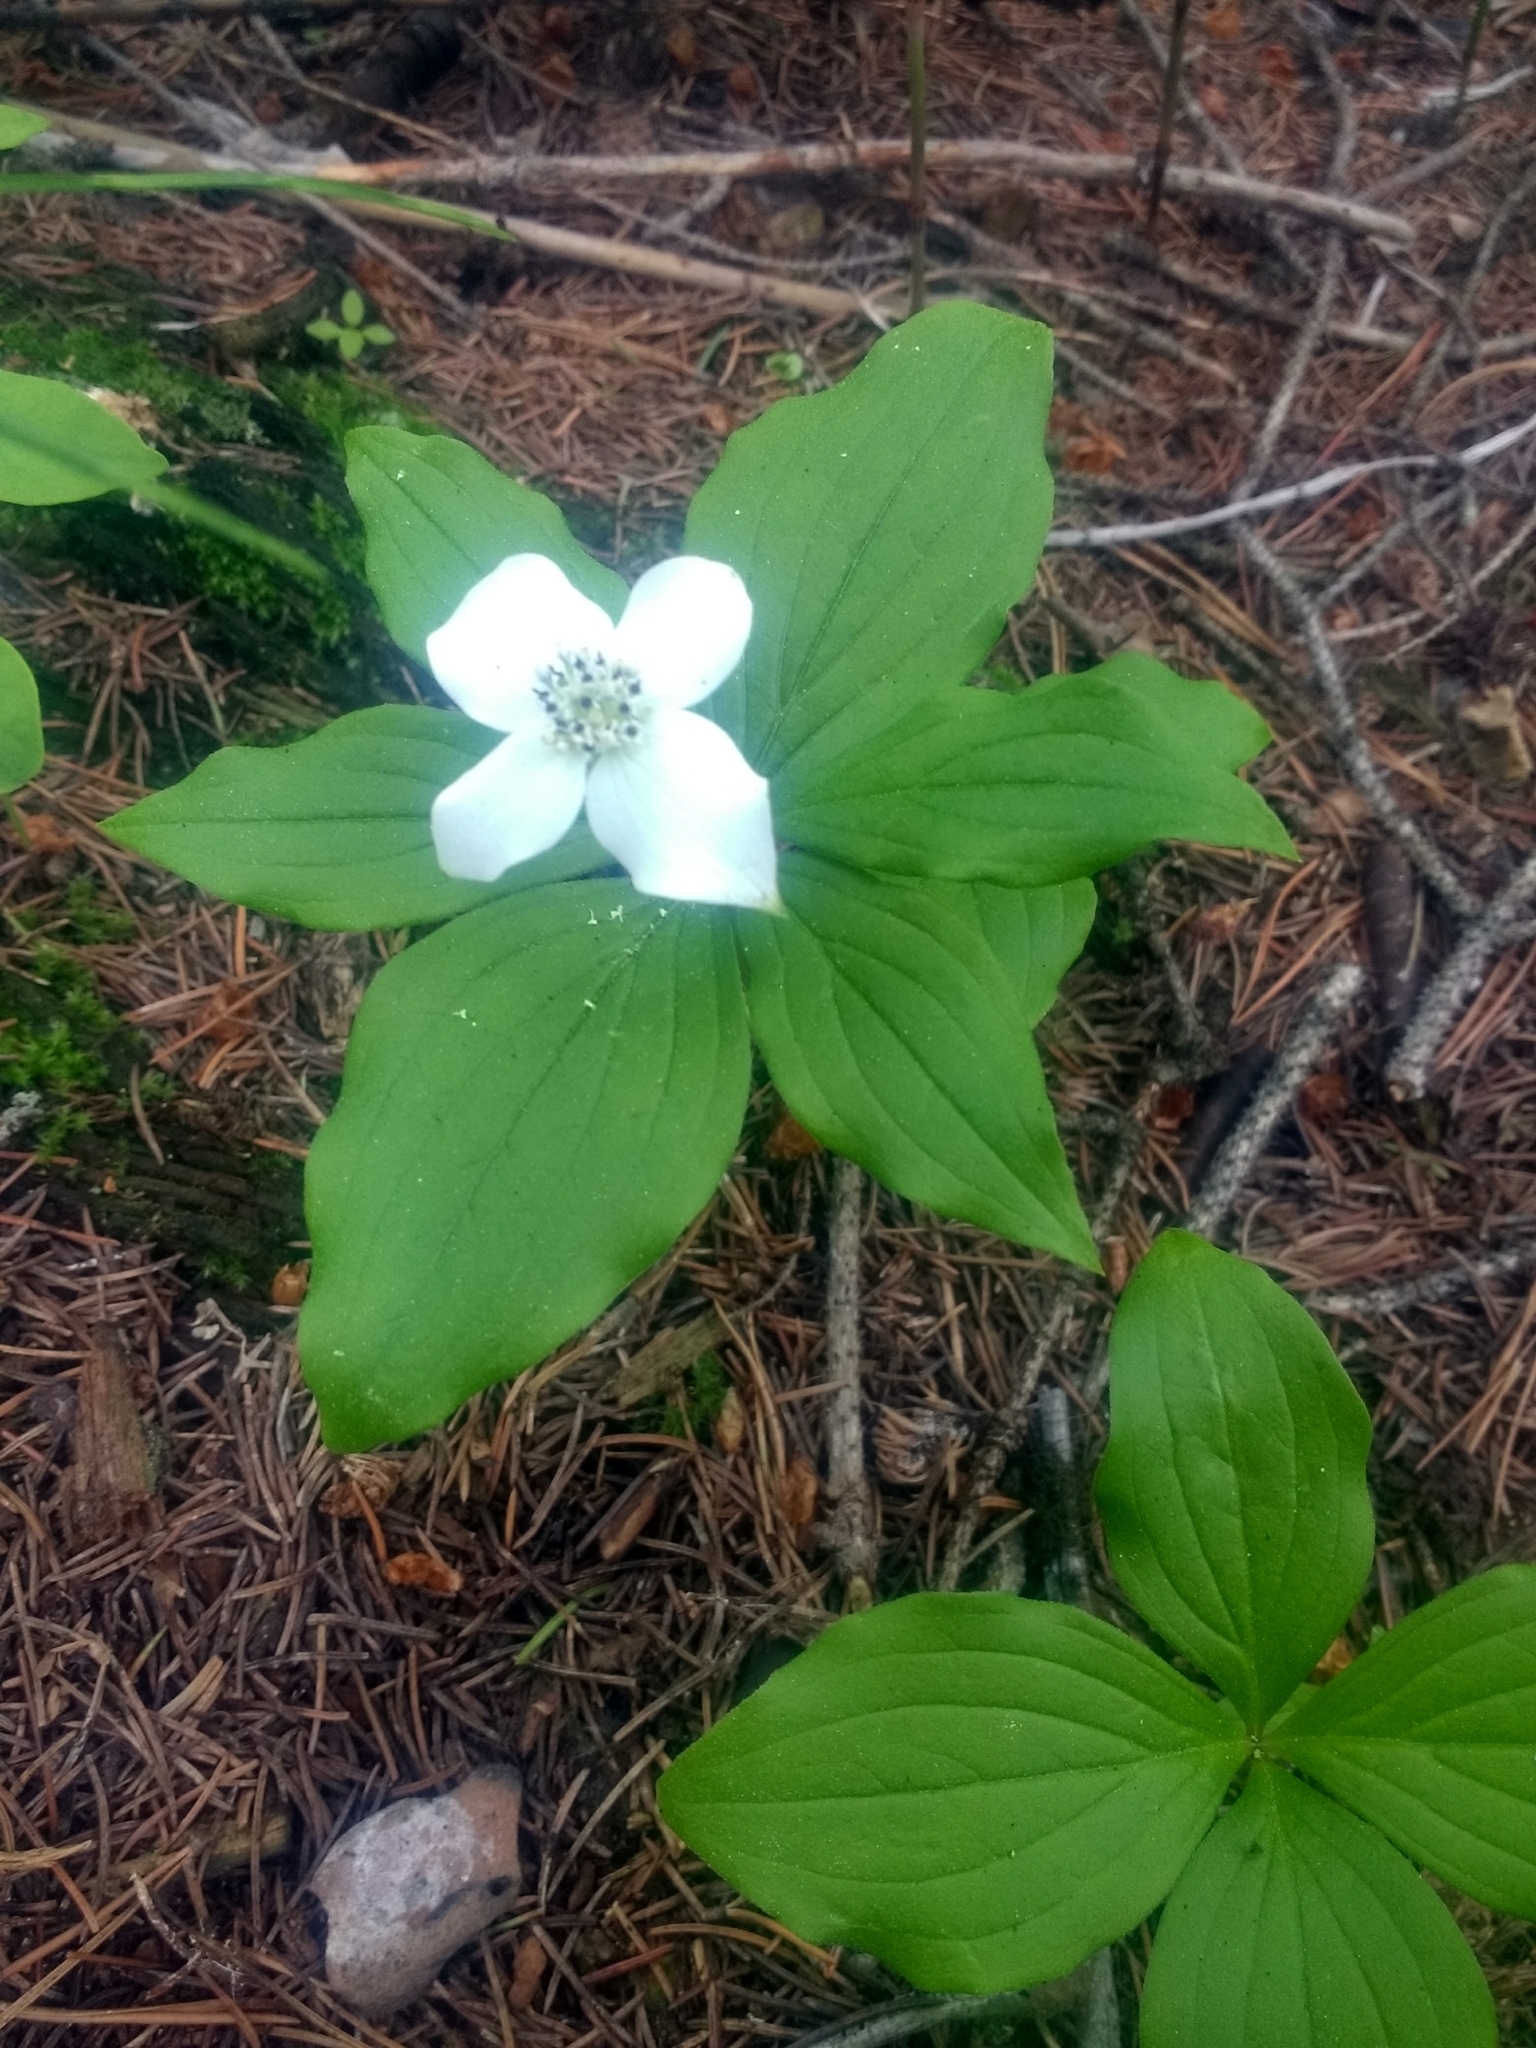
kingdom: Plantae
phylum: Tracheophyta
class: Magnoliopsida
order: Cornales
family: Cornaceae
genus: Cornus
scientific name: Cornus canadensis
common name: Creeping dogwood
